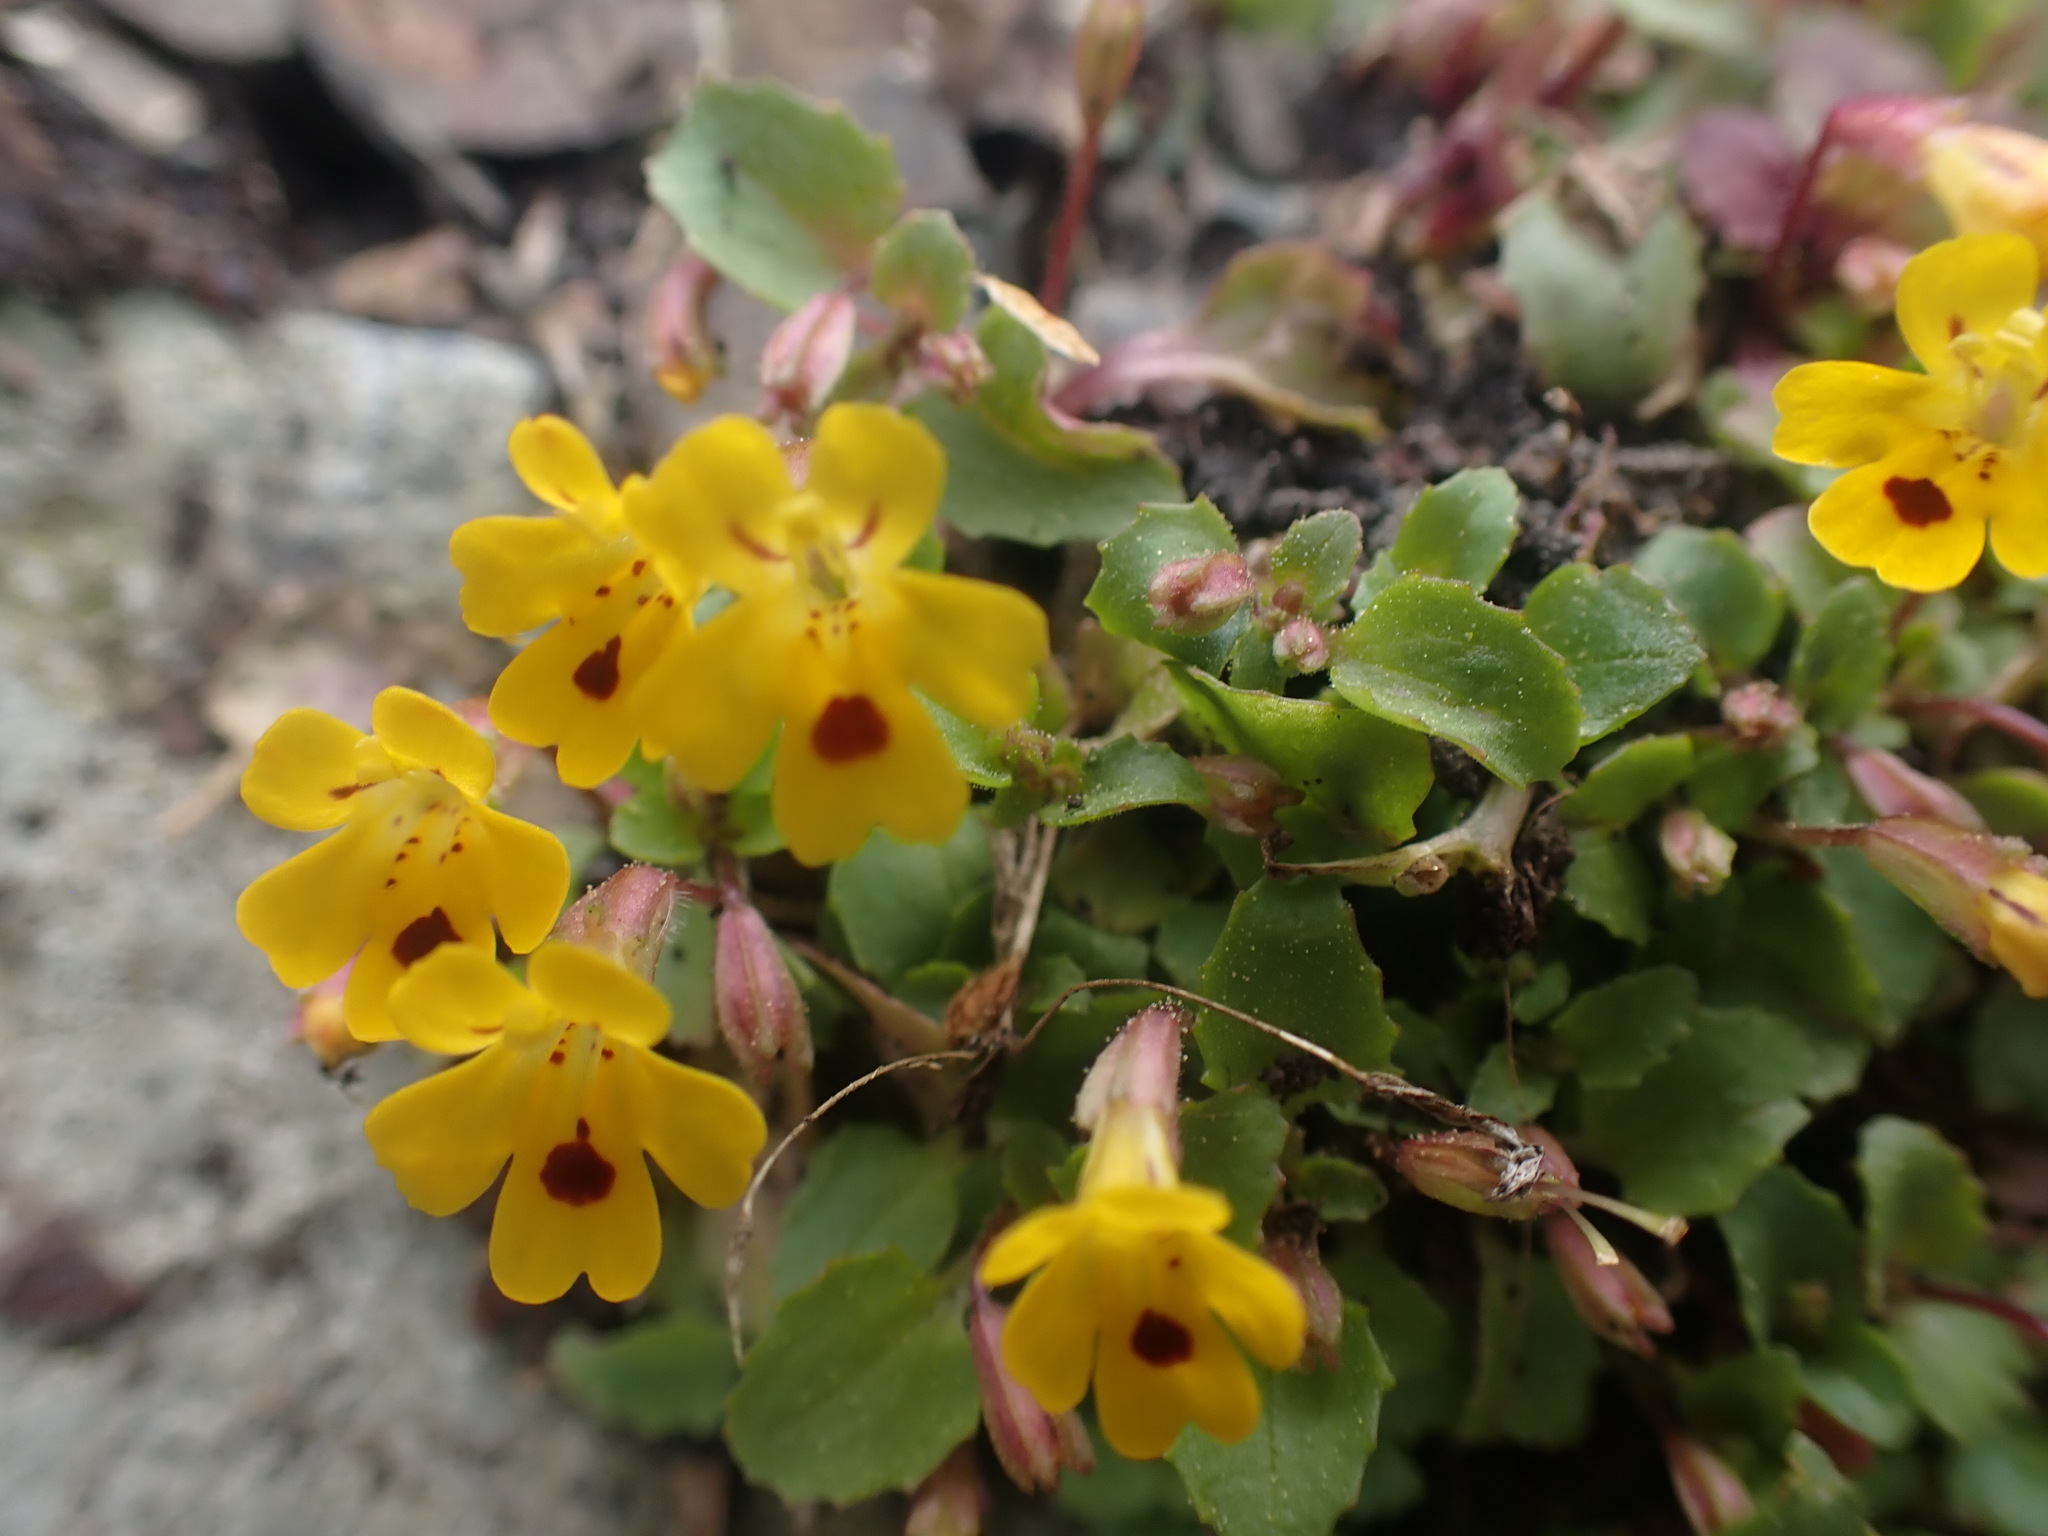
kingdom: Plantae
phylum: Tracheophyta
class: Magnoliopsida
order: Lamiales
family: Phrymaceae
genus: Erythranthe
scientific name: Erythranthe alsinoides
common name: Chickweed monkeyflower
